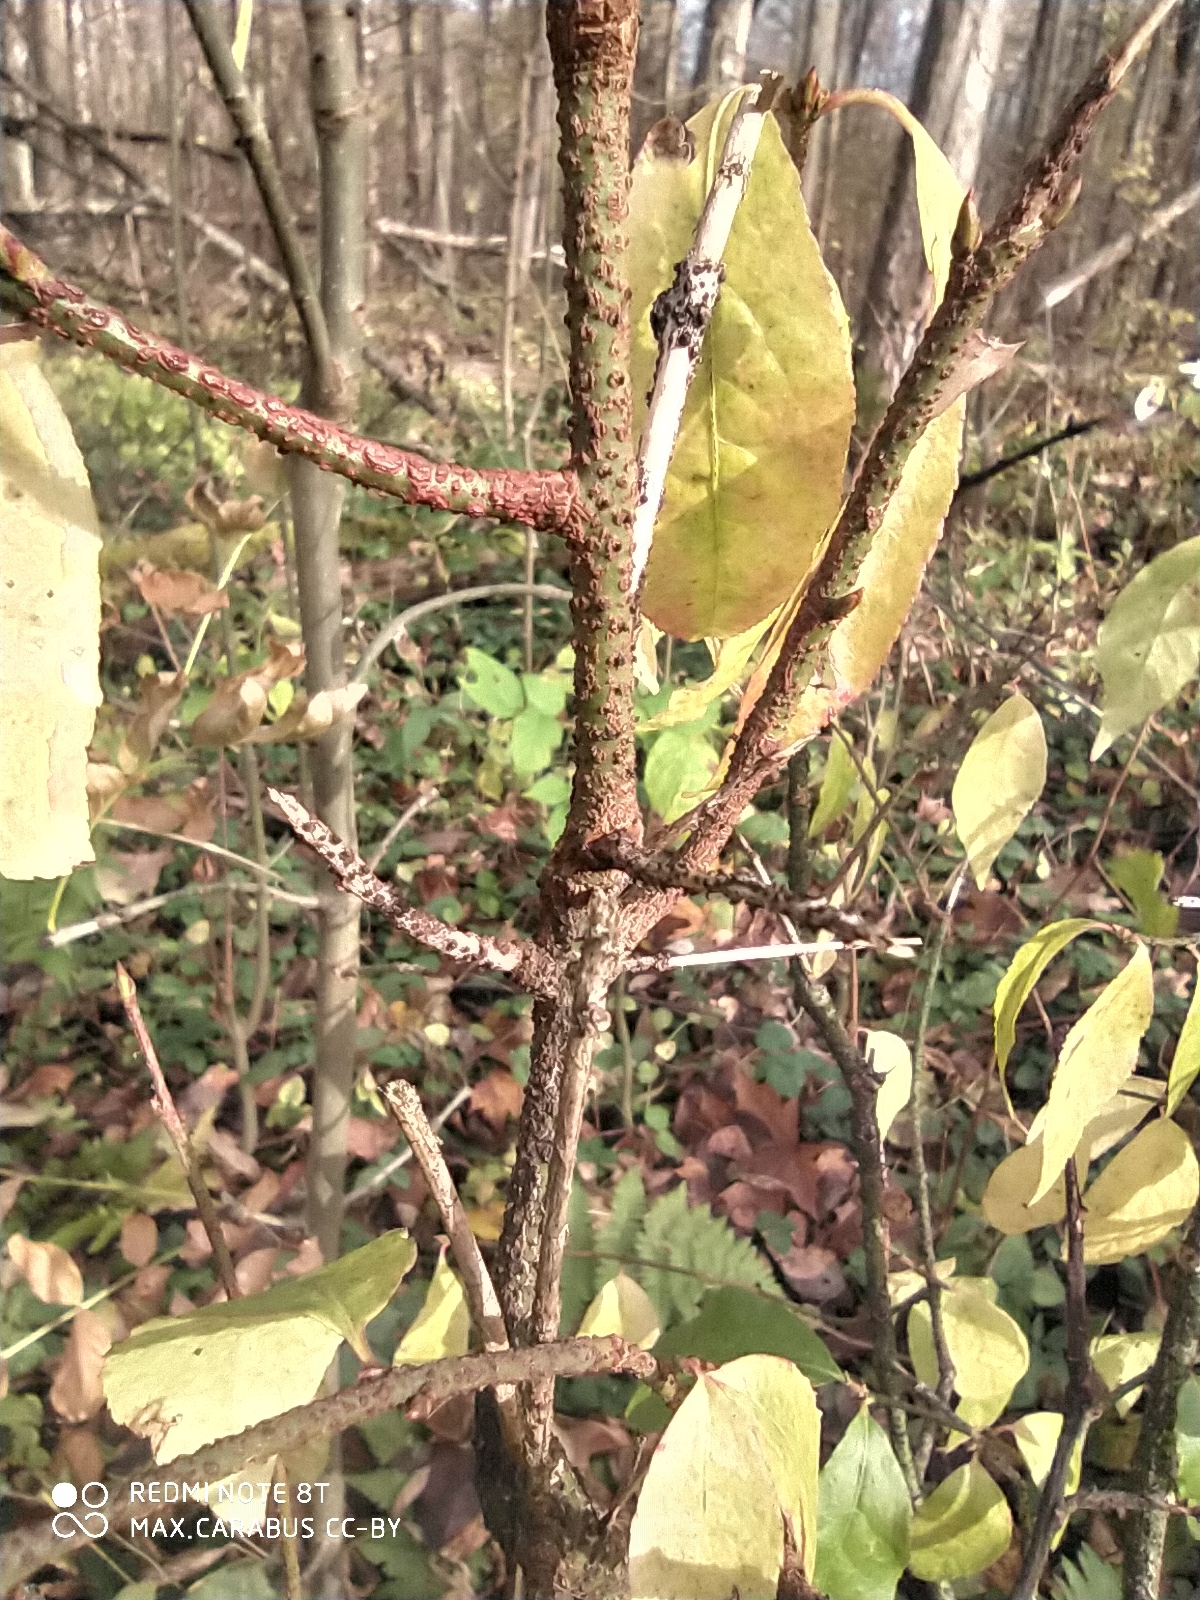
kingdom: Plantae
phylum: Tracheophyta
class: Magnoliopsida
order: Celastrales
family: Celastraceae
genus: Euonymus
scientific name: Euonymus verrucosus
